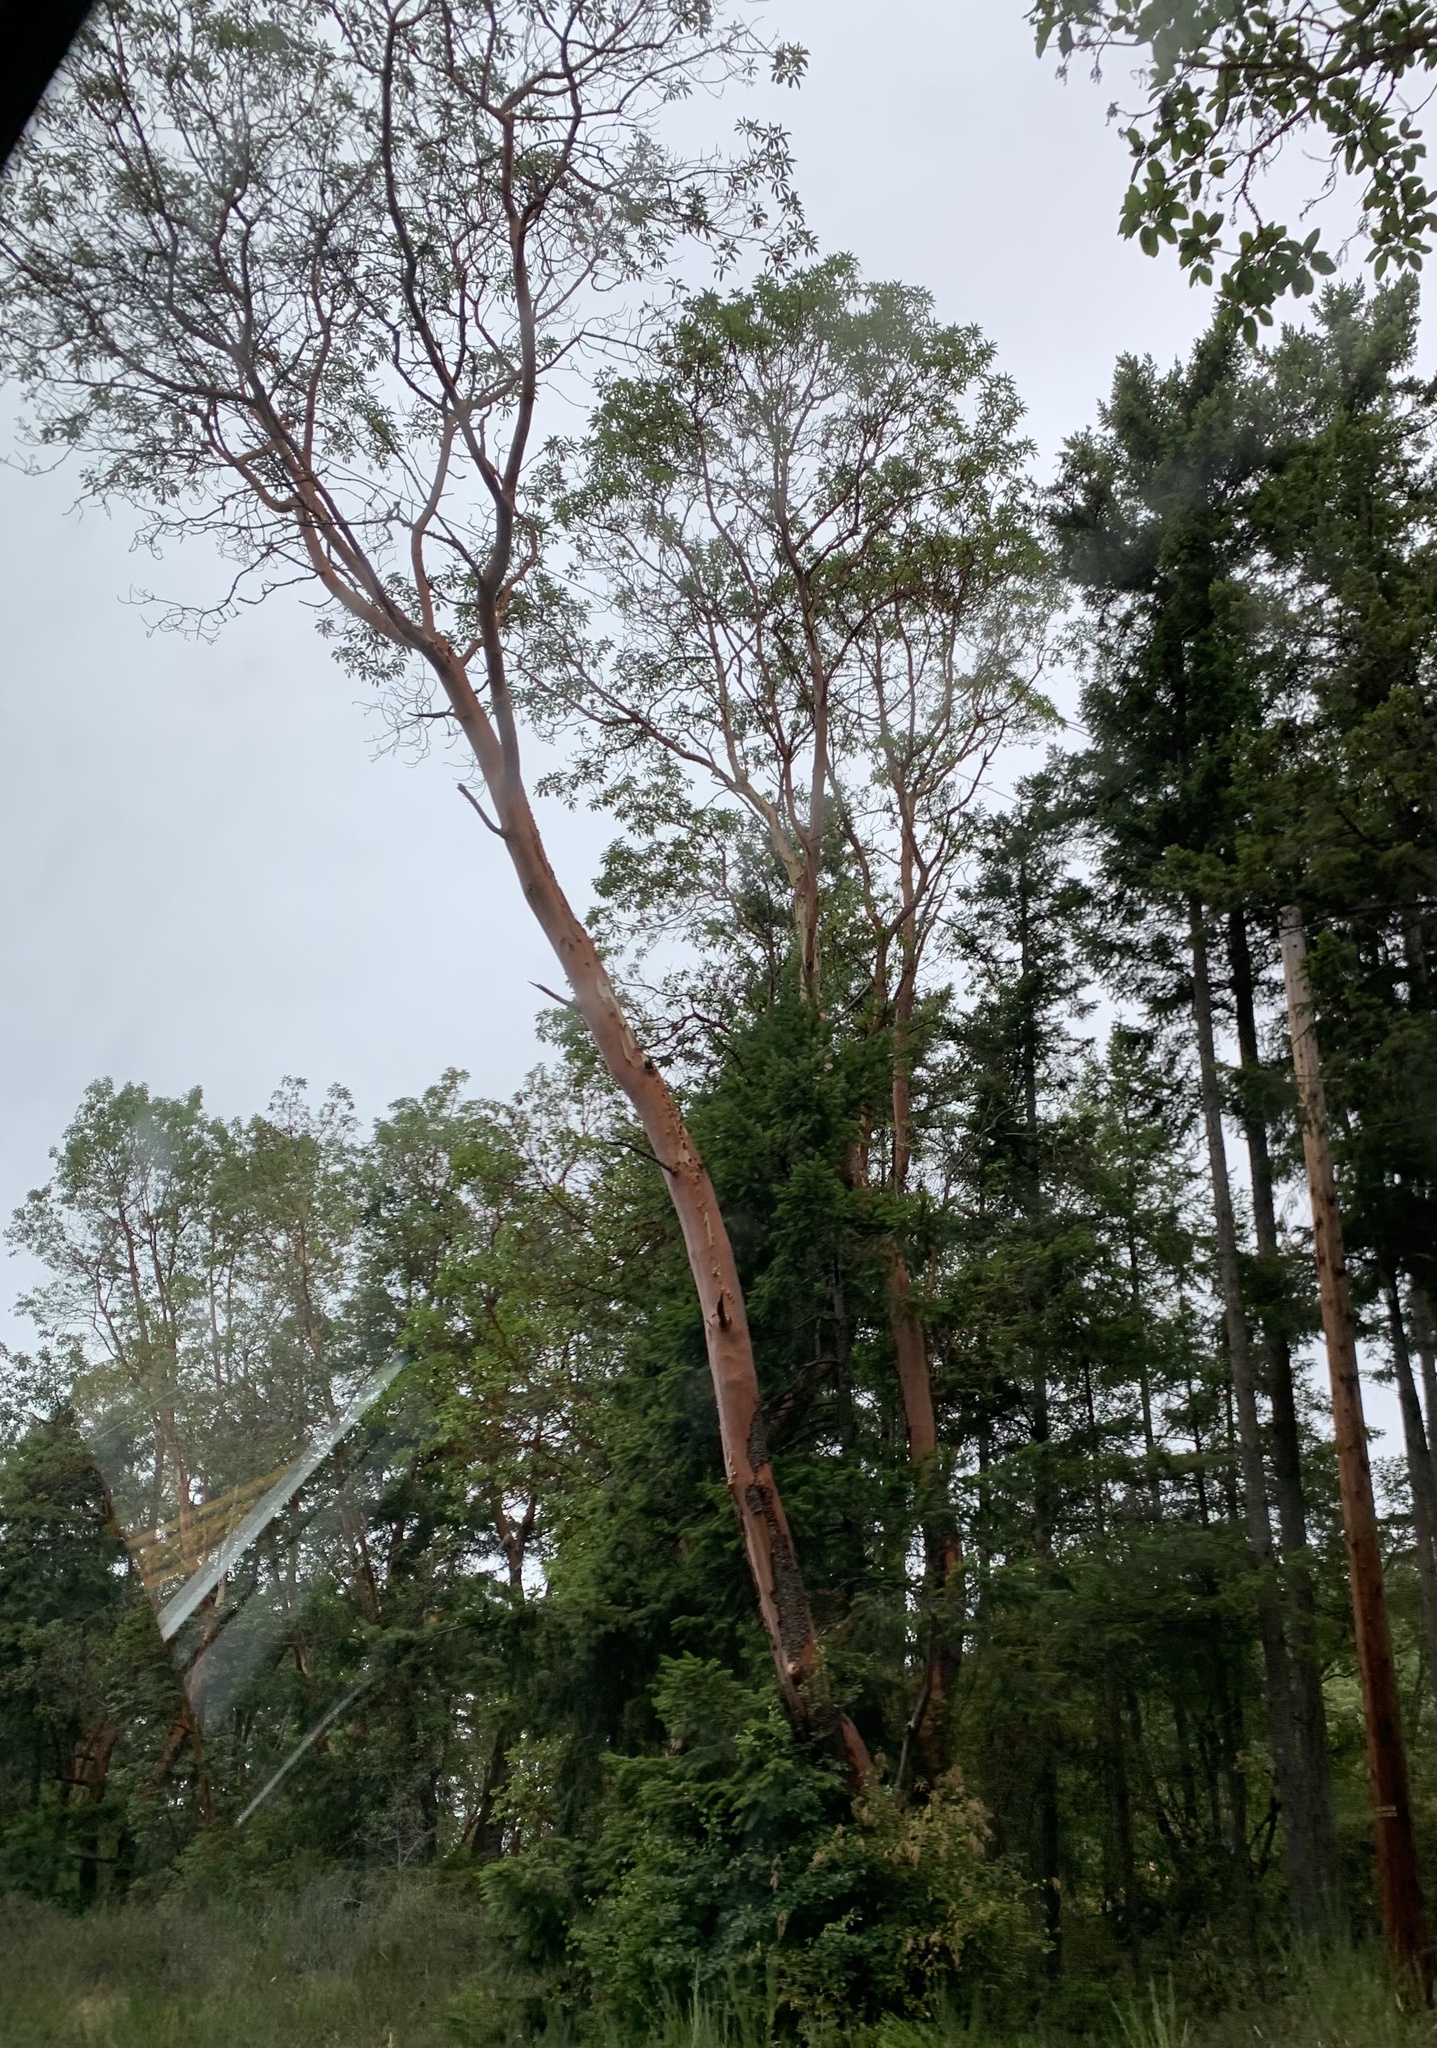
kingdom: Plantae
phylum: Tracheophyta
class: Magnoliopsida
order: Ericales
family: Ericaceae
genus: Arbutus
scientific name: Arbutus menziesii
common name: Pacific madrone
